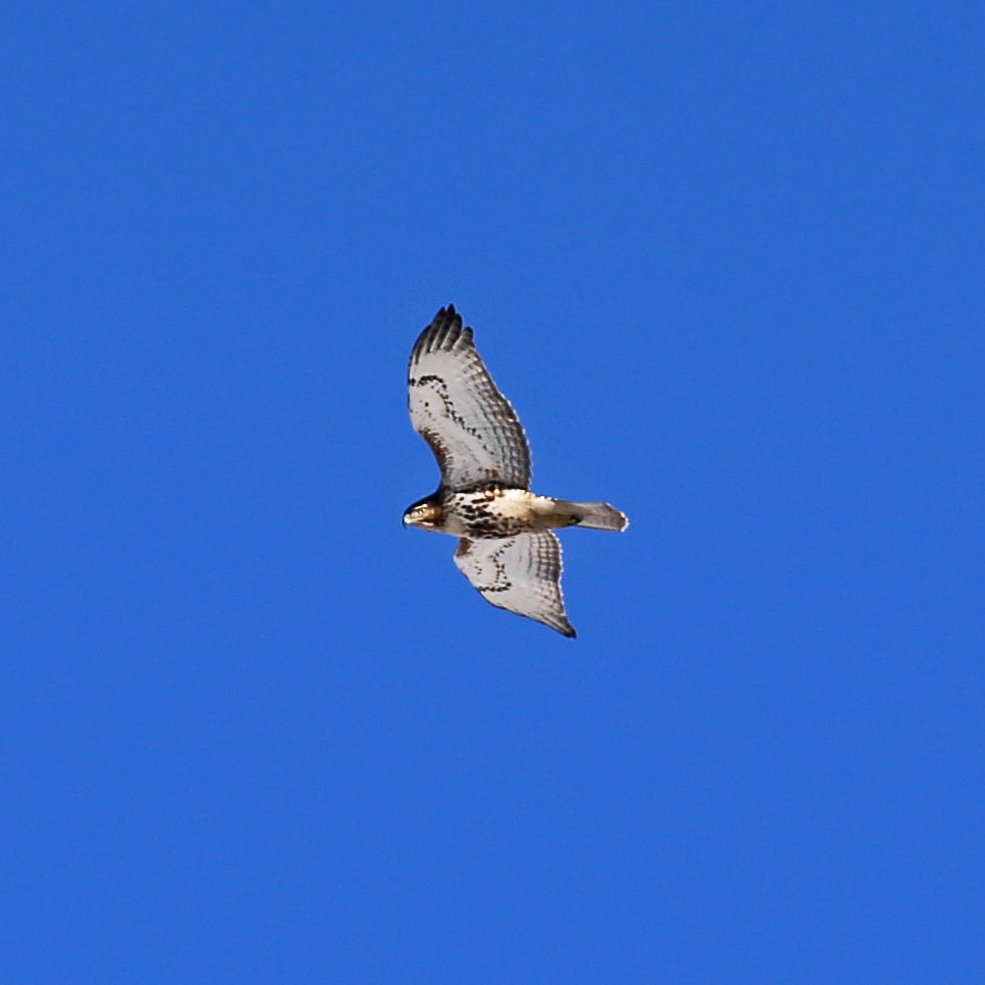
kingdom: Animalia
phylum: Chordata
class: Aves
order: Accipitriformes
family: Accipitridae
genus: Buteo
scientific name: Buteo jamaicensis
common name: Red-tailed hawk
